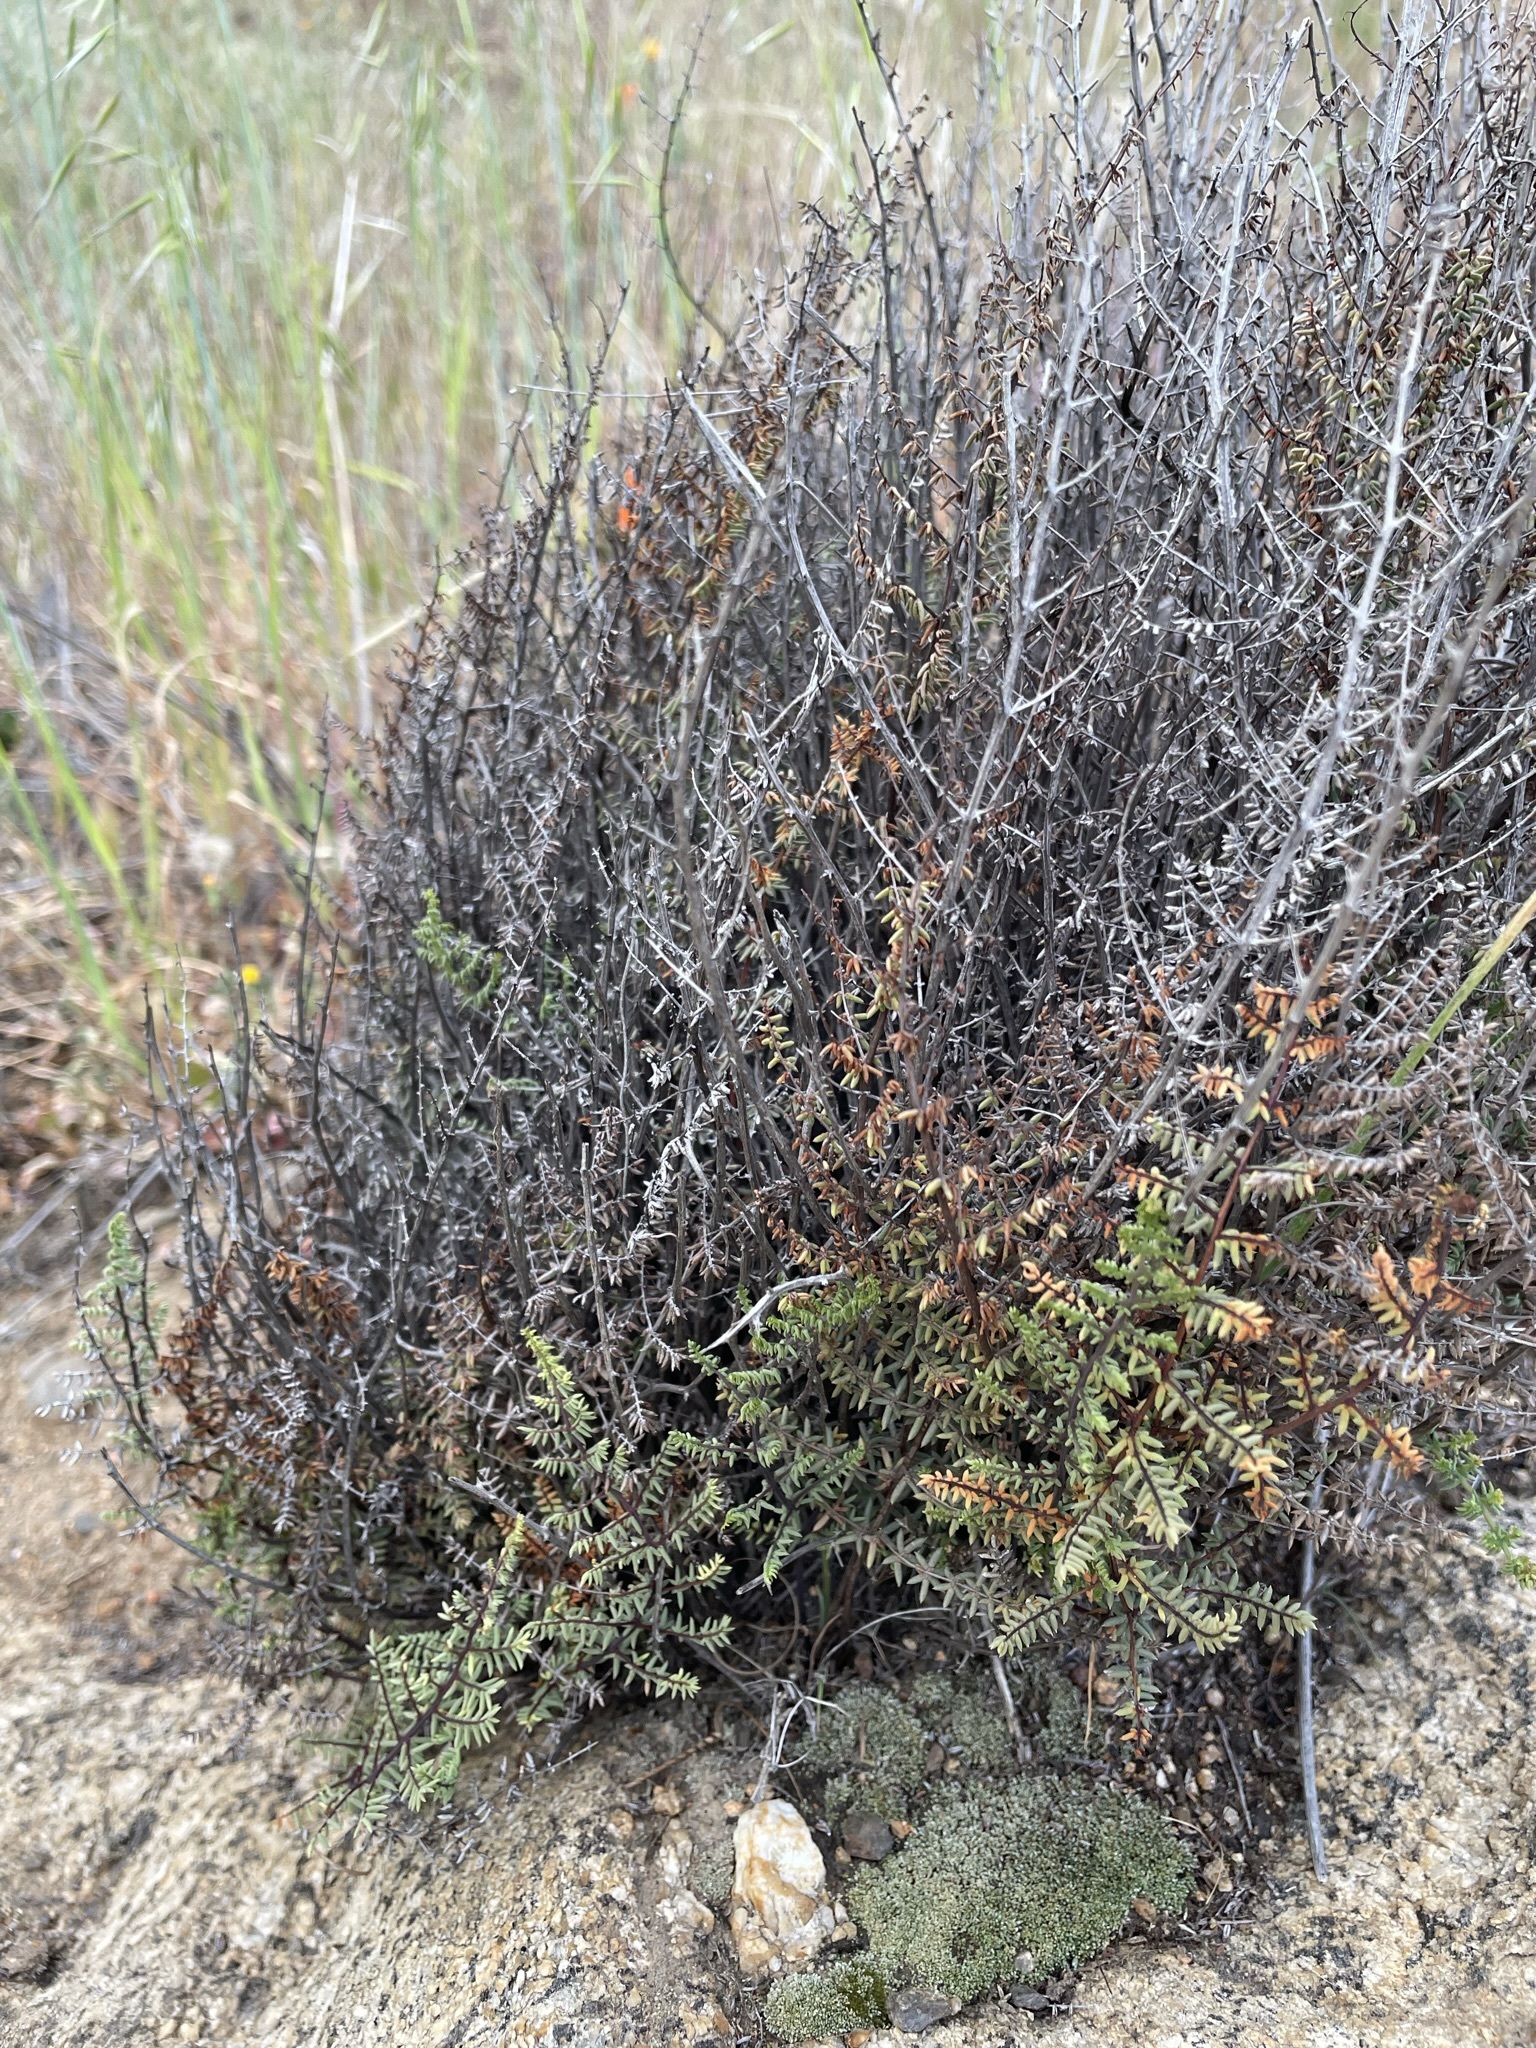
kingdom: Plantae
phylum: Tracheophyta
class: Polypodiopsida
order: Polypodiales
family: Pteridaceae
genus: Pellaea
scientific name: Pellaea mucronata
